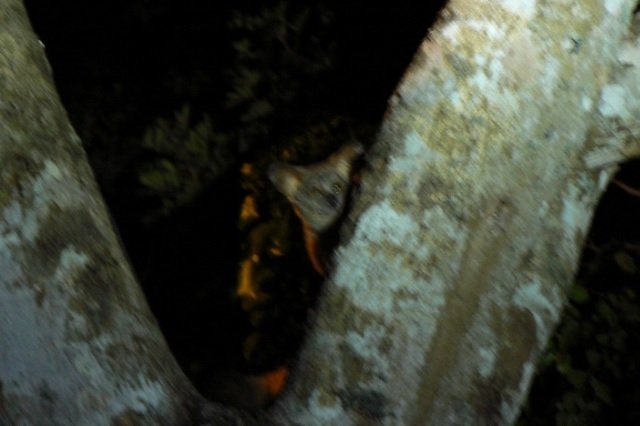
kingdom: Animalia
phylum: Chordata
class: Mammalia
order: Primates
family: Galagidae
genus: Otolemur
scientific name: Otolemur crassicaudatus
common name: Brown greater galago
